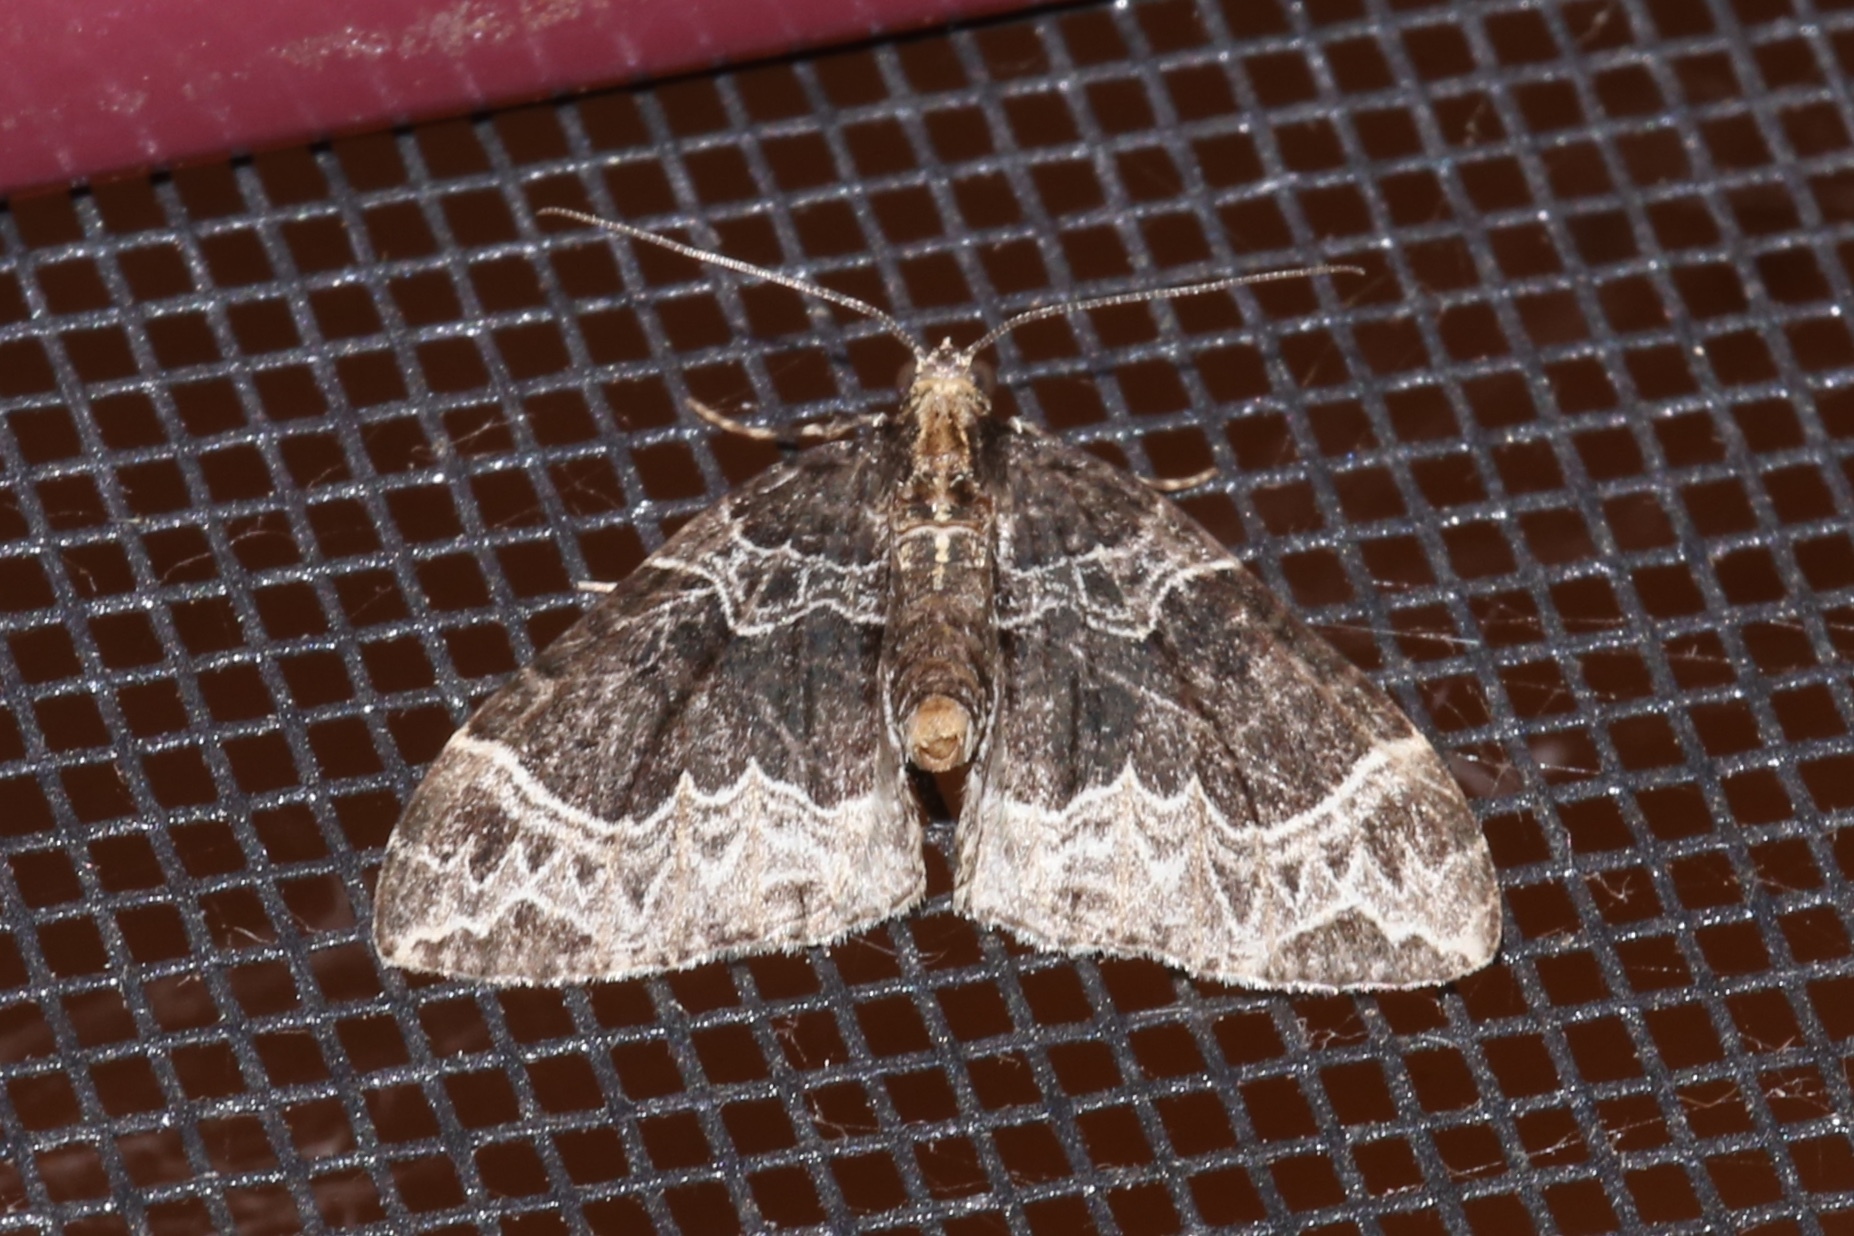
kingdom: Animalia
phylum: Arthropoda
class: Insecta
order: Lepidoptera
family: Geometridae
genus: Ecliptopera
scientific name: Ecliptopera silaceata
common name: Small phoenix
